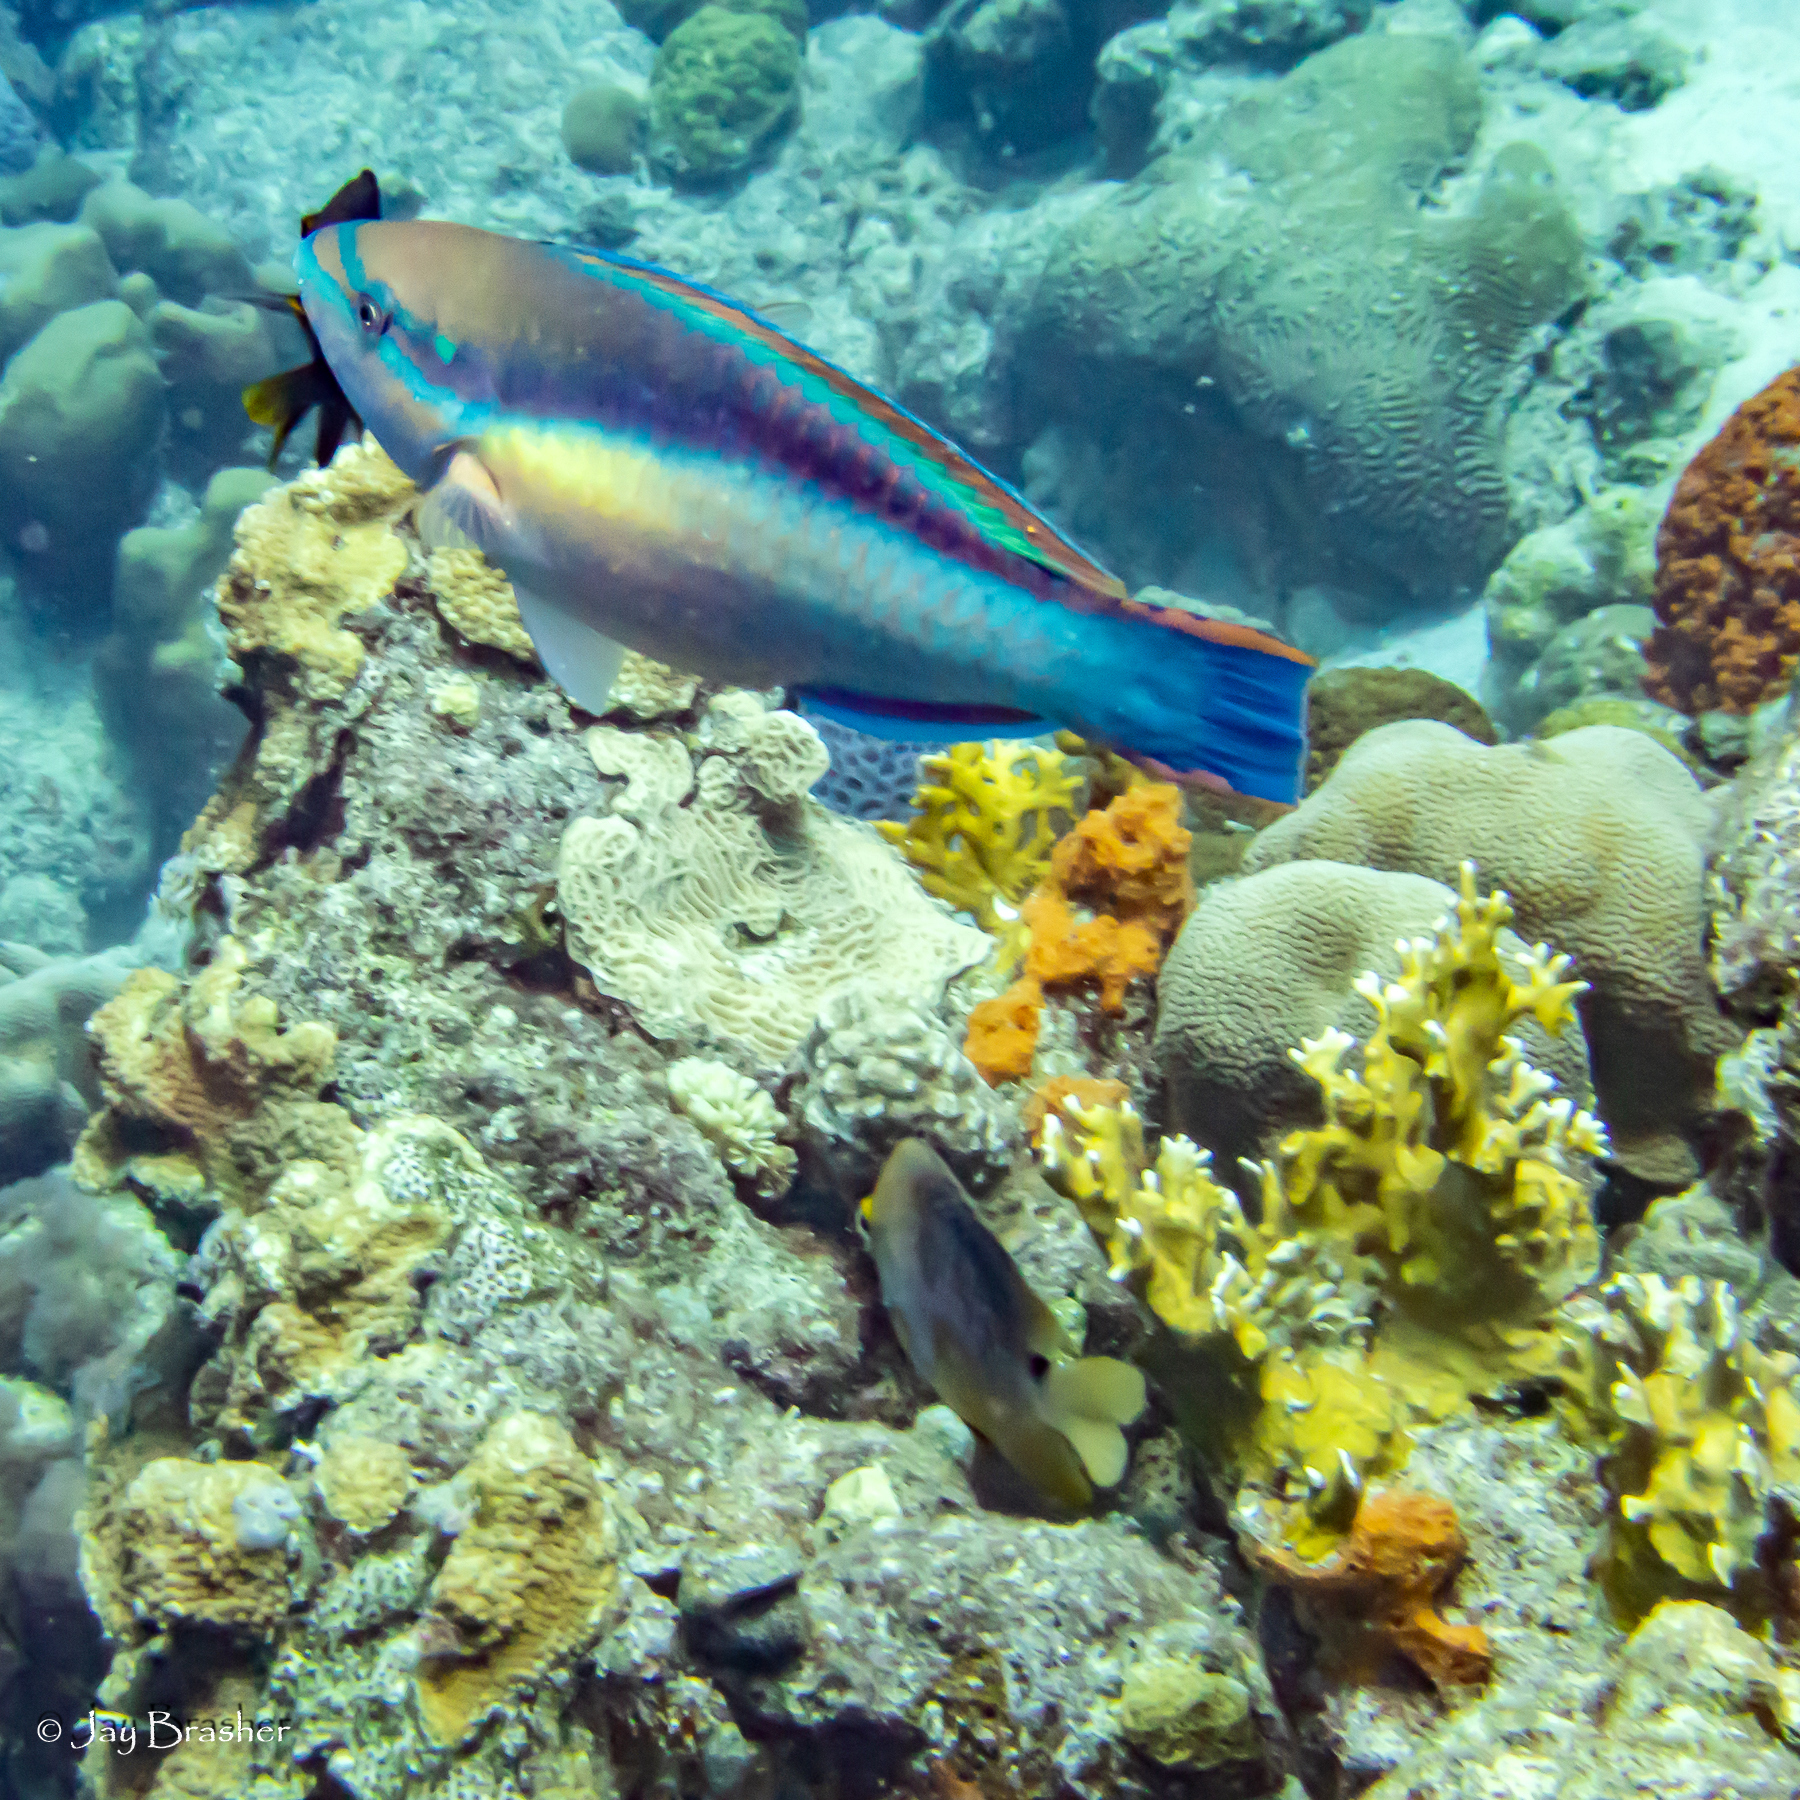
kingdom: Animalia
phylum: Chordata
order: Perciformes
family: Scaridae
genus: Scarus
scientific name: Scarus taeniopterus
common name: Princess parrotfish
